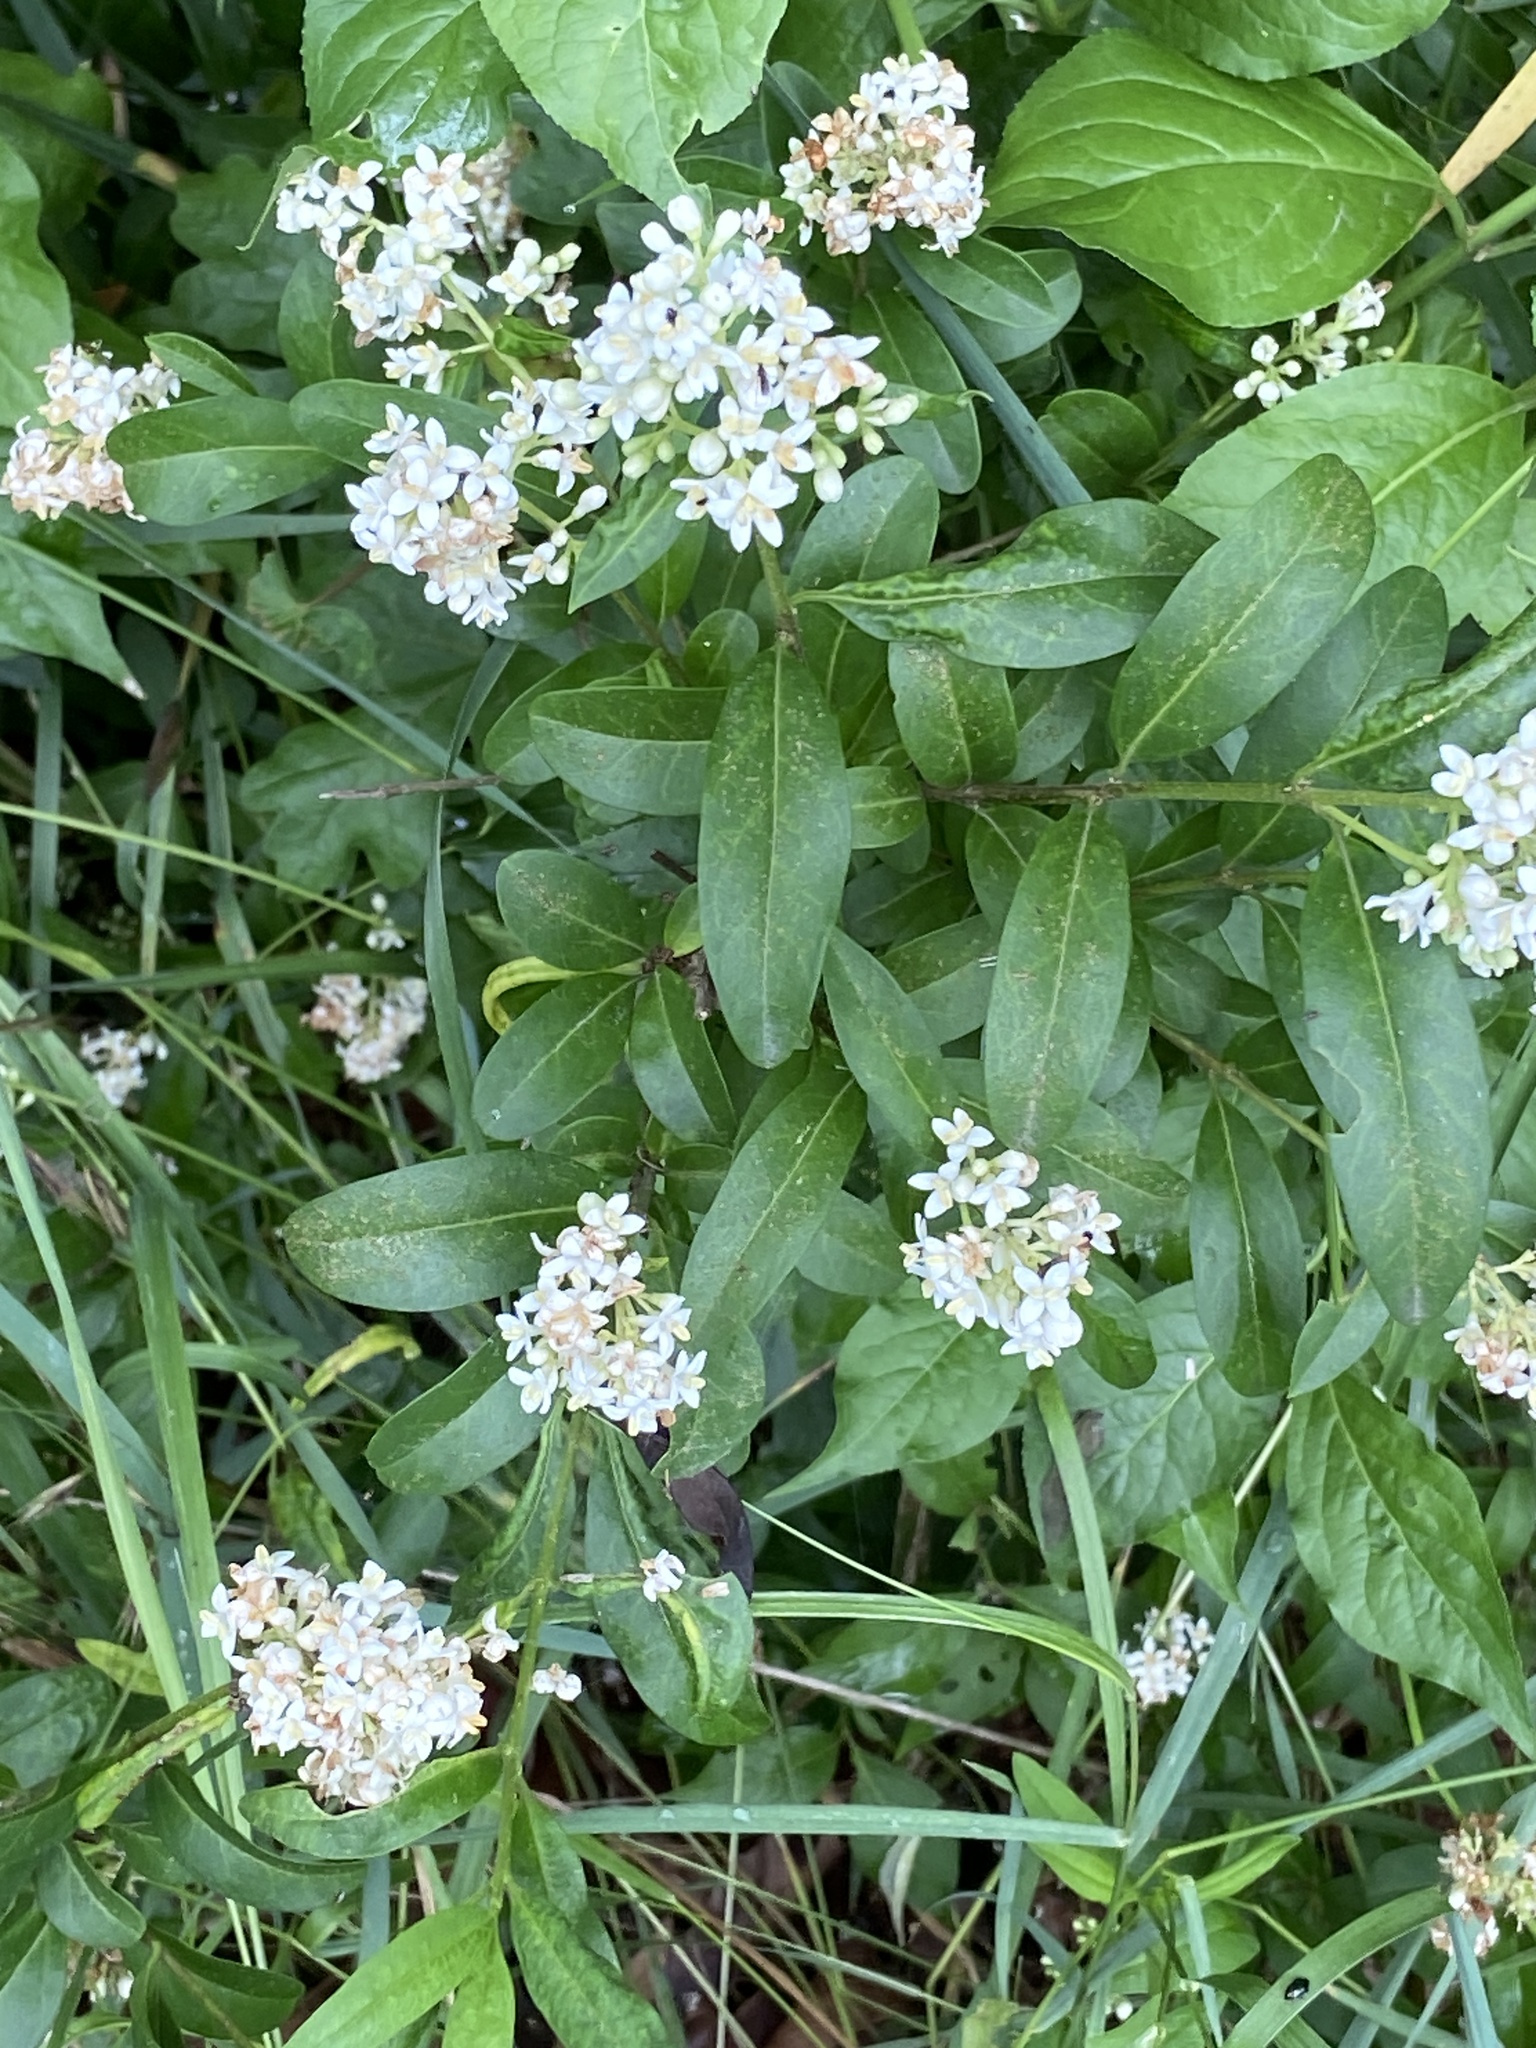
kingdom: Plantae
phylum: Tracheophyta
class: Magnoliopsida
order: Lamiales
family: Oleaceae
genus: Ligustrum
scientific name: Ligustrum vulgare
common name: Wild privet
